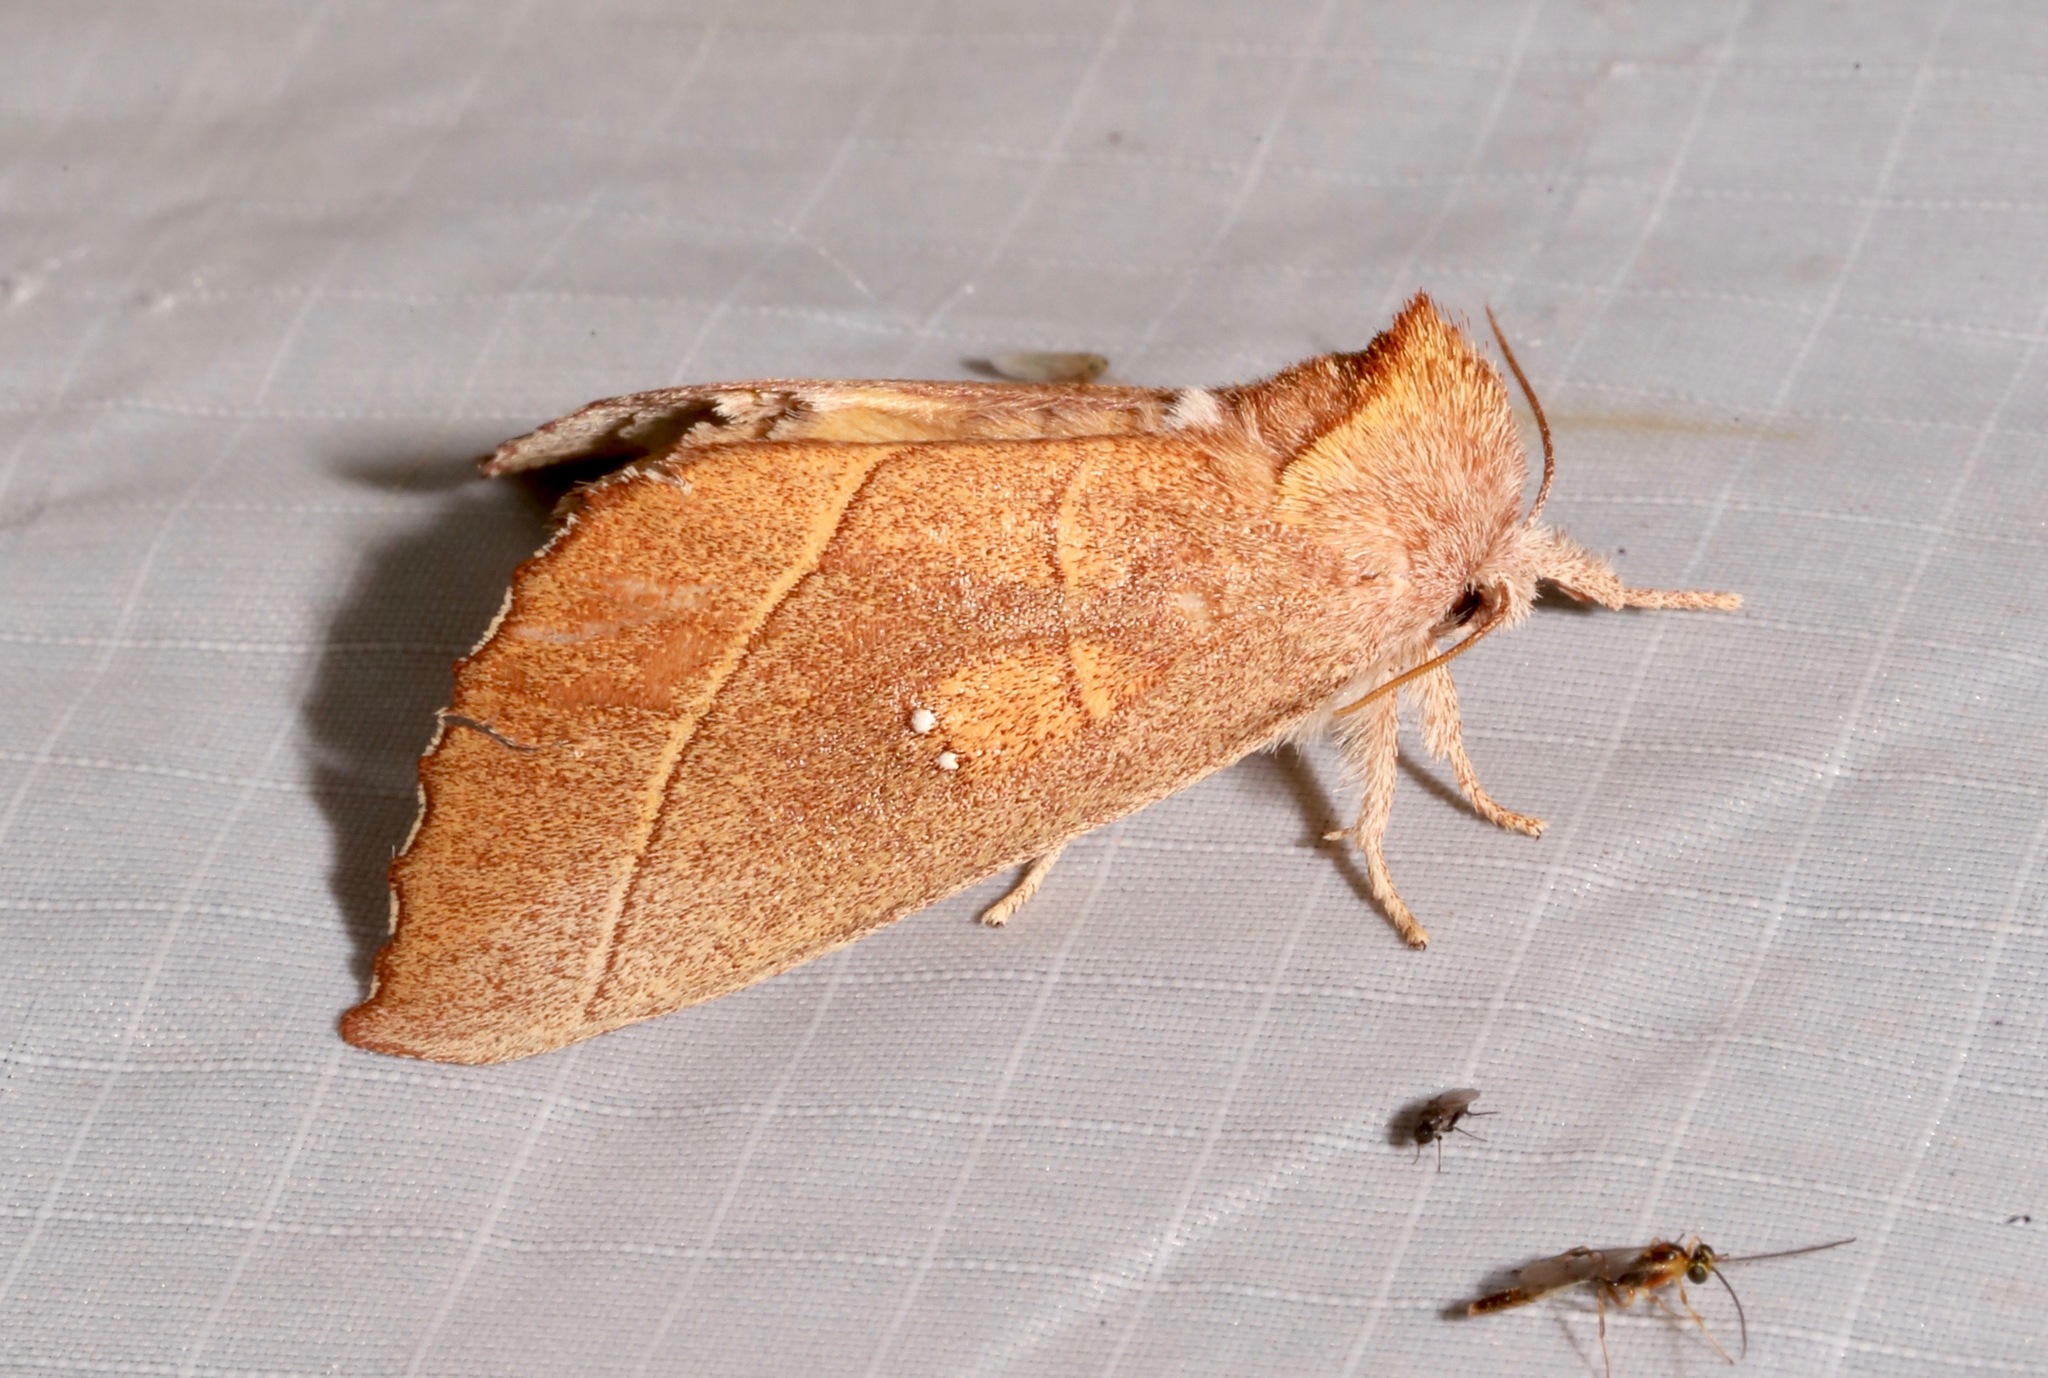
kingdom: Animalia
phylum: Arthropoda
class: Insecta
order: Lepidoptera
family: Notodontidae
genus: Nadata
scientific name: Nadata gibbosa
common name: White-dotted prominent
